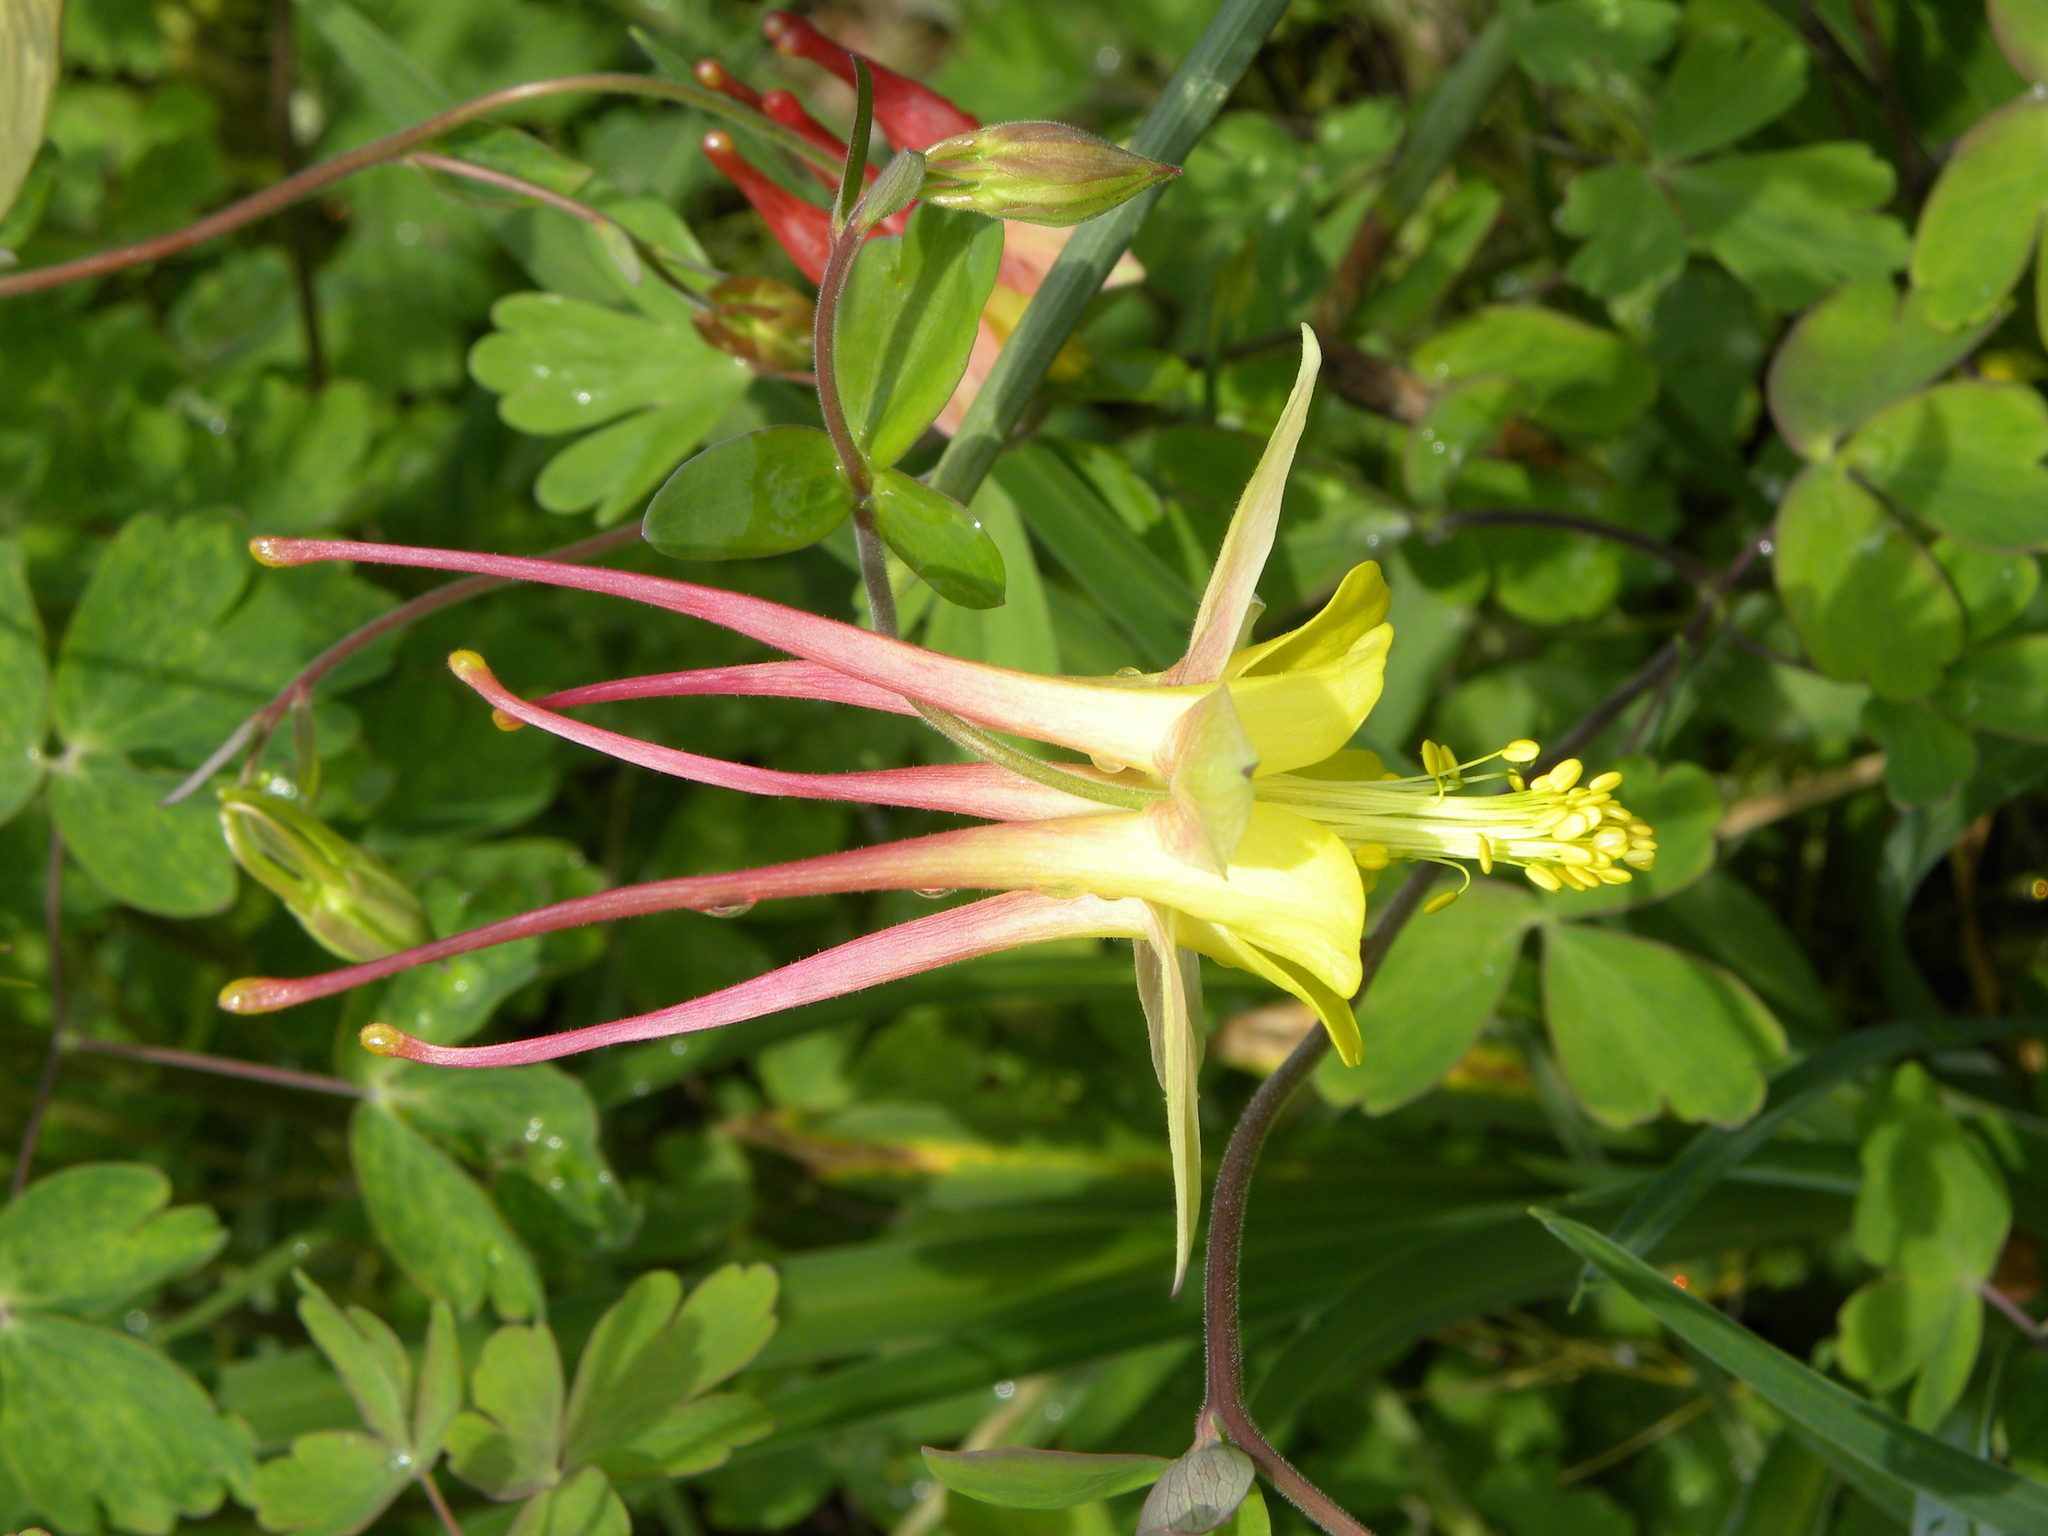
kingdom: Plantae
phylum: Tracheophyta
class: Magnoliopsida
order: Ranunculales
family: Ranunculaceae
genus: Aquilegia
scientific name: Aquilegia
